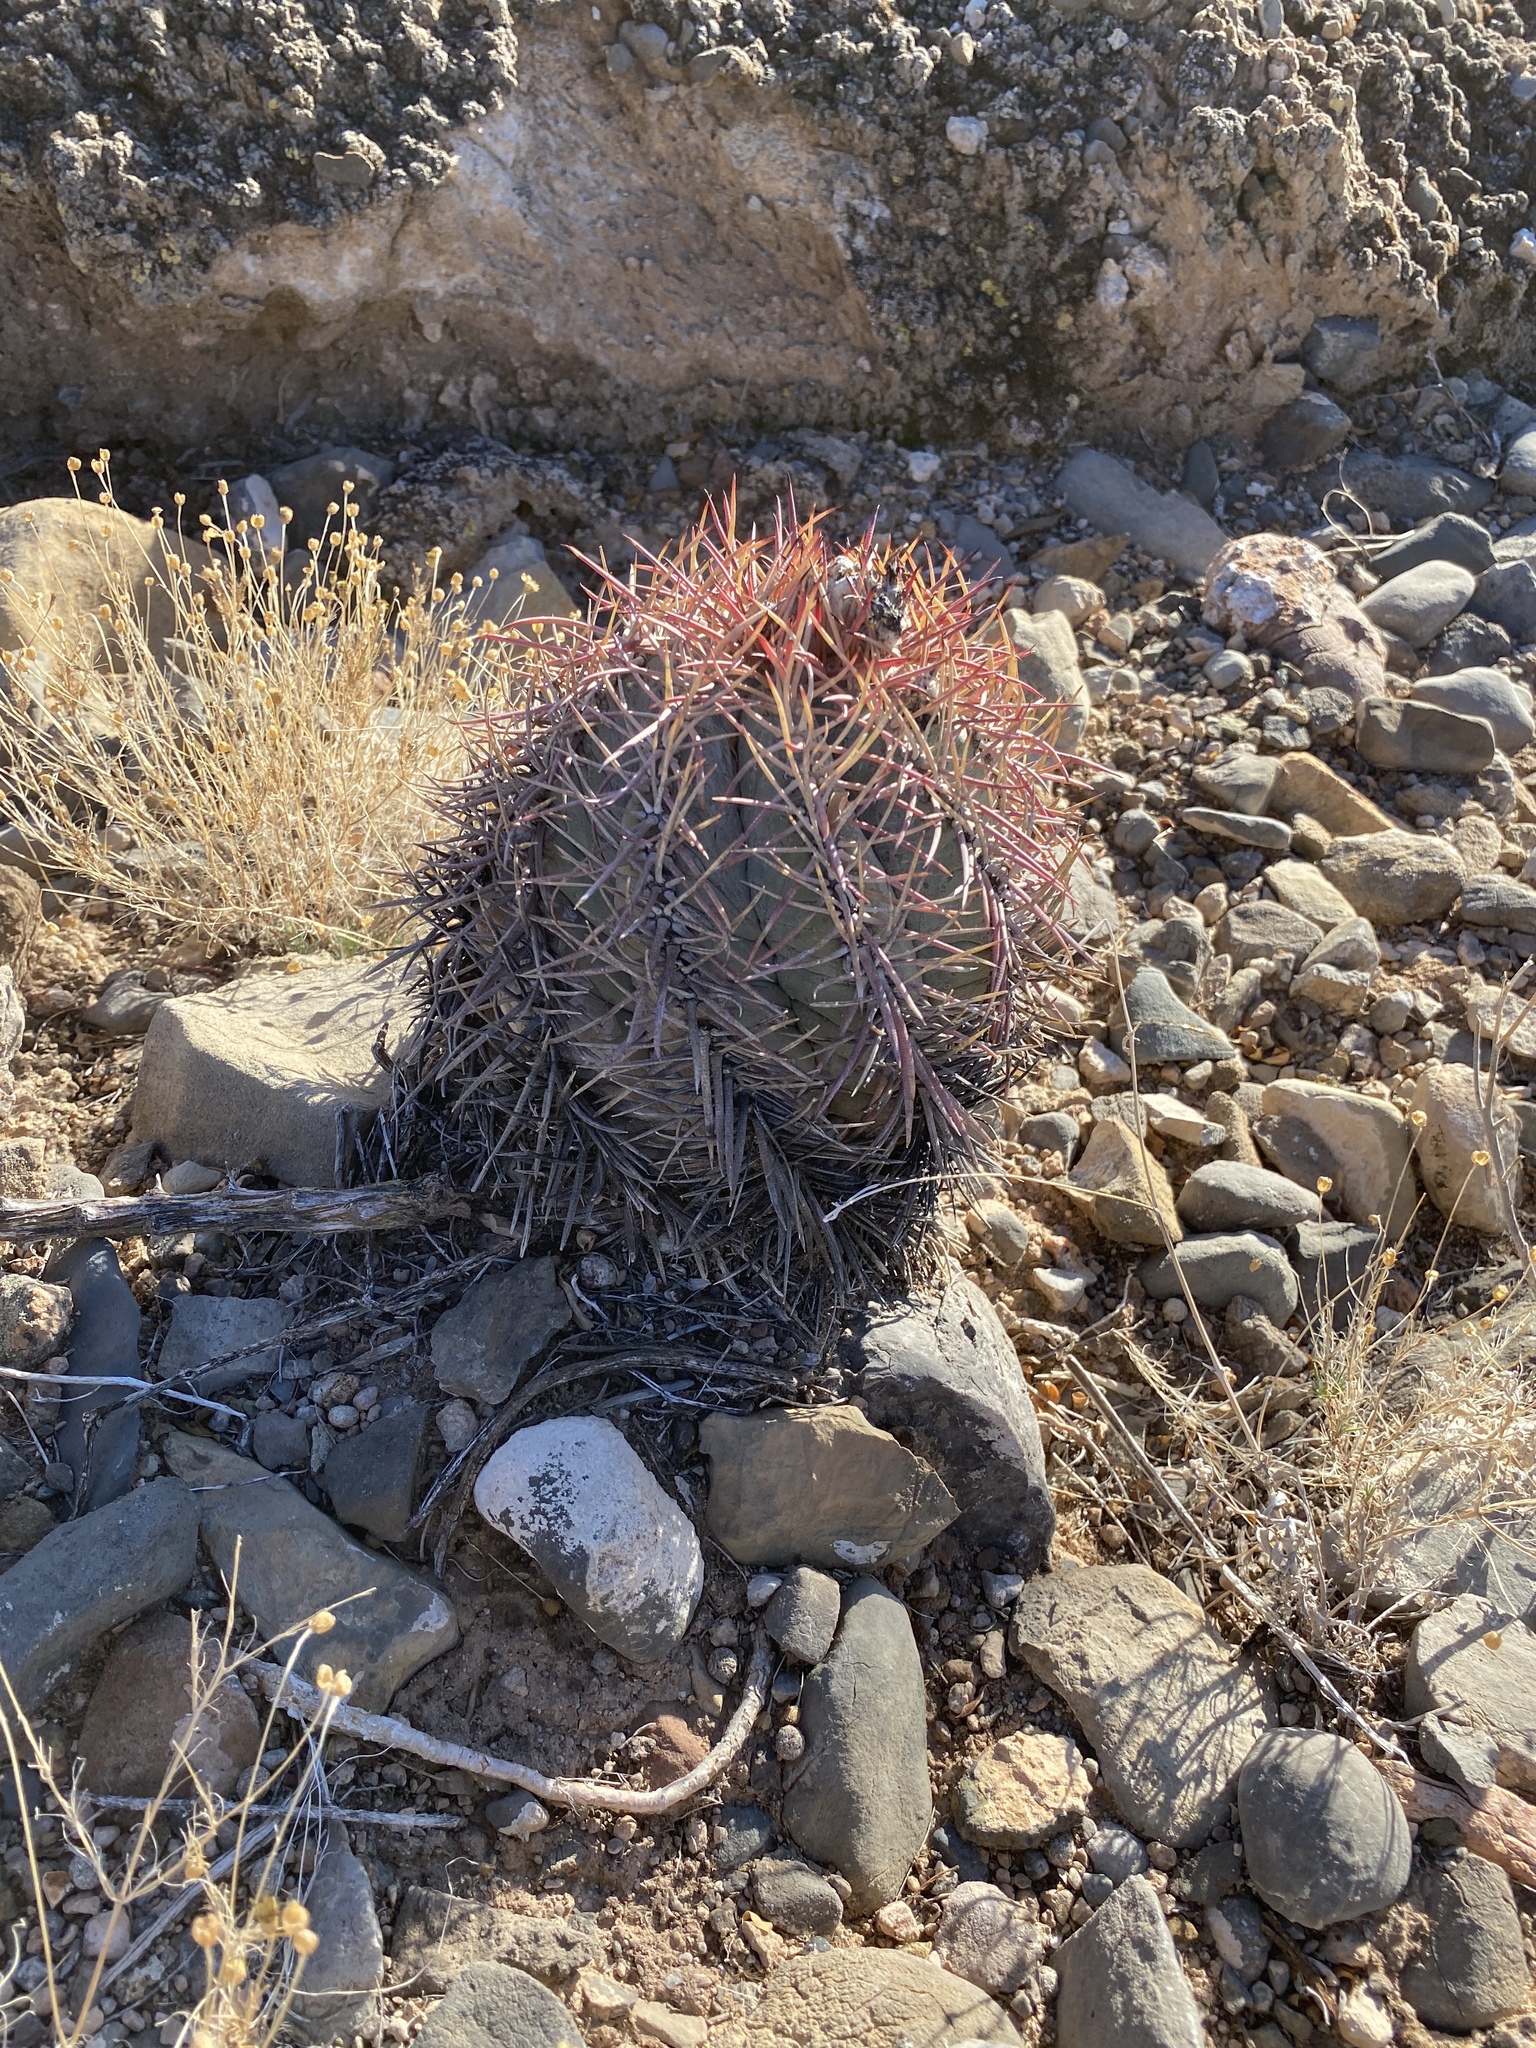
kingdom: Plantae
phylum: Tracheophyta
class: Magnoliopsida
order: Caryophyllales
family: Cactaceae
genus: Echinocactus
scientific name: Echinocactus horizonthalonius
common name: Devilshead
